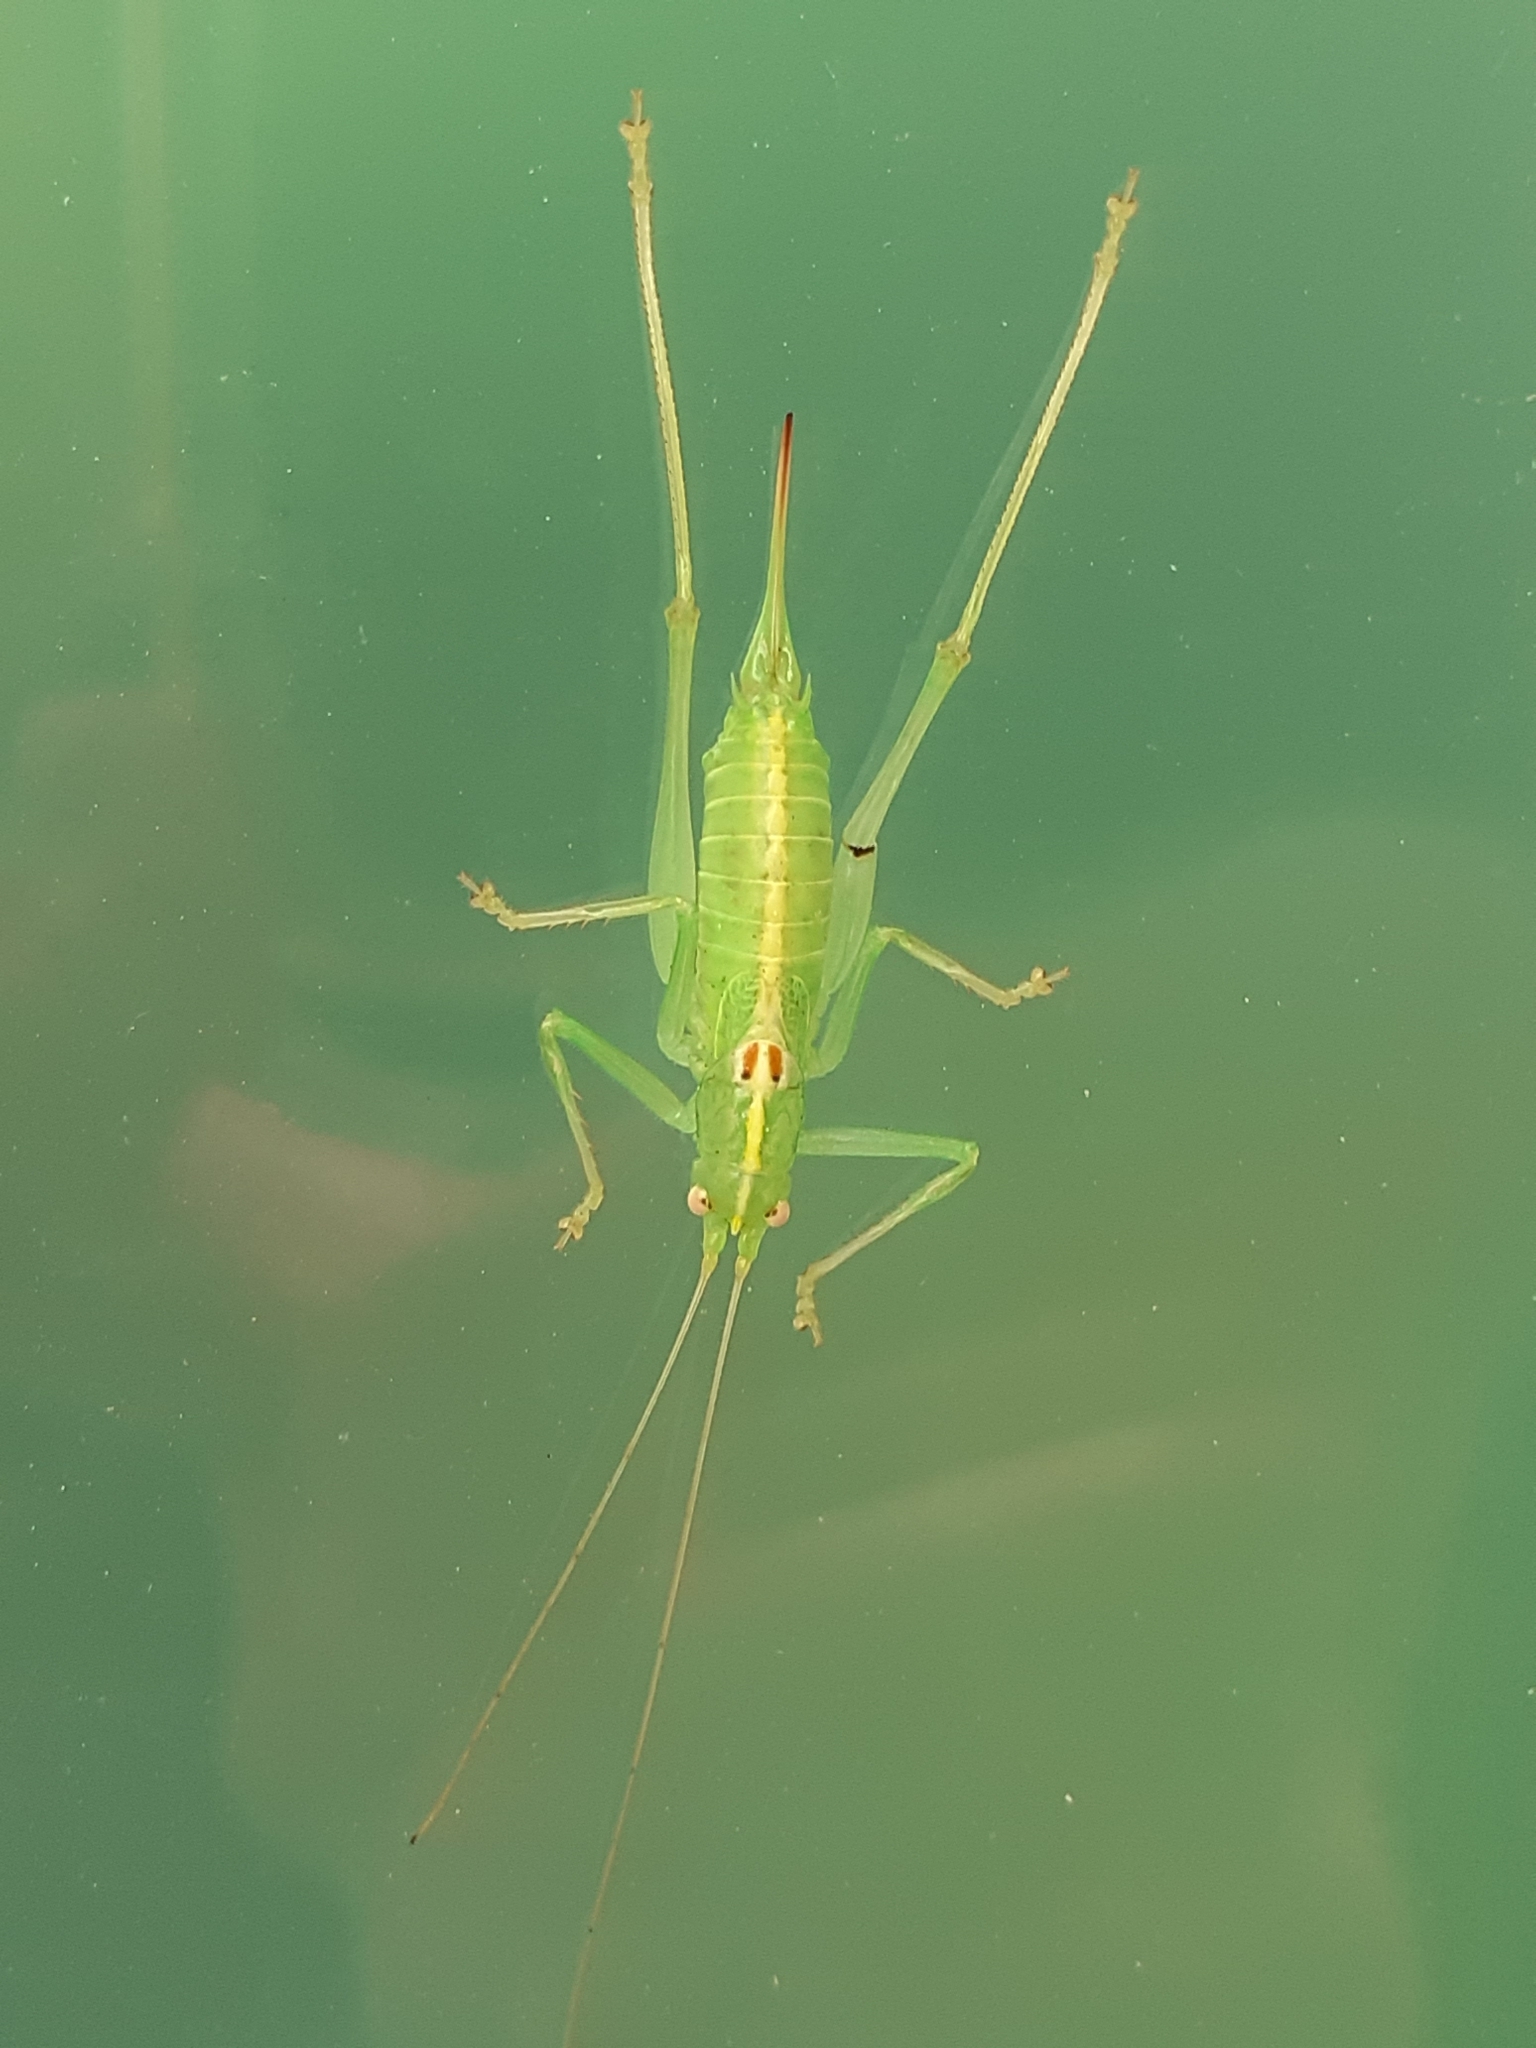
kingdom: Animalia
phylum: Arthropoda
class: Insecta
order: Orthoptera
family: Tettigoniidae
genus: Meconema
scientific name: Meconema meridionale
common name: Southern oak bush-cricket
